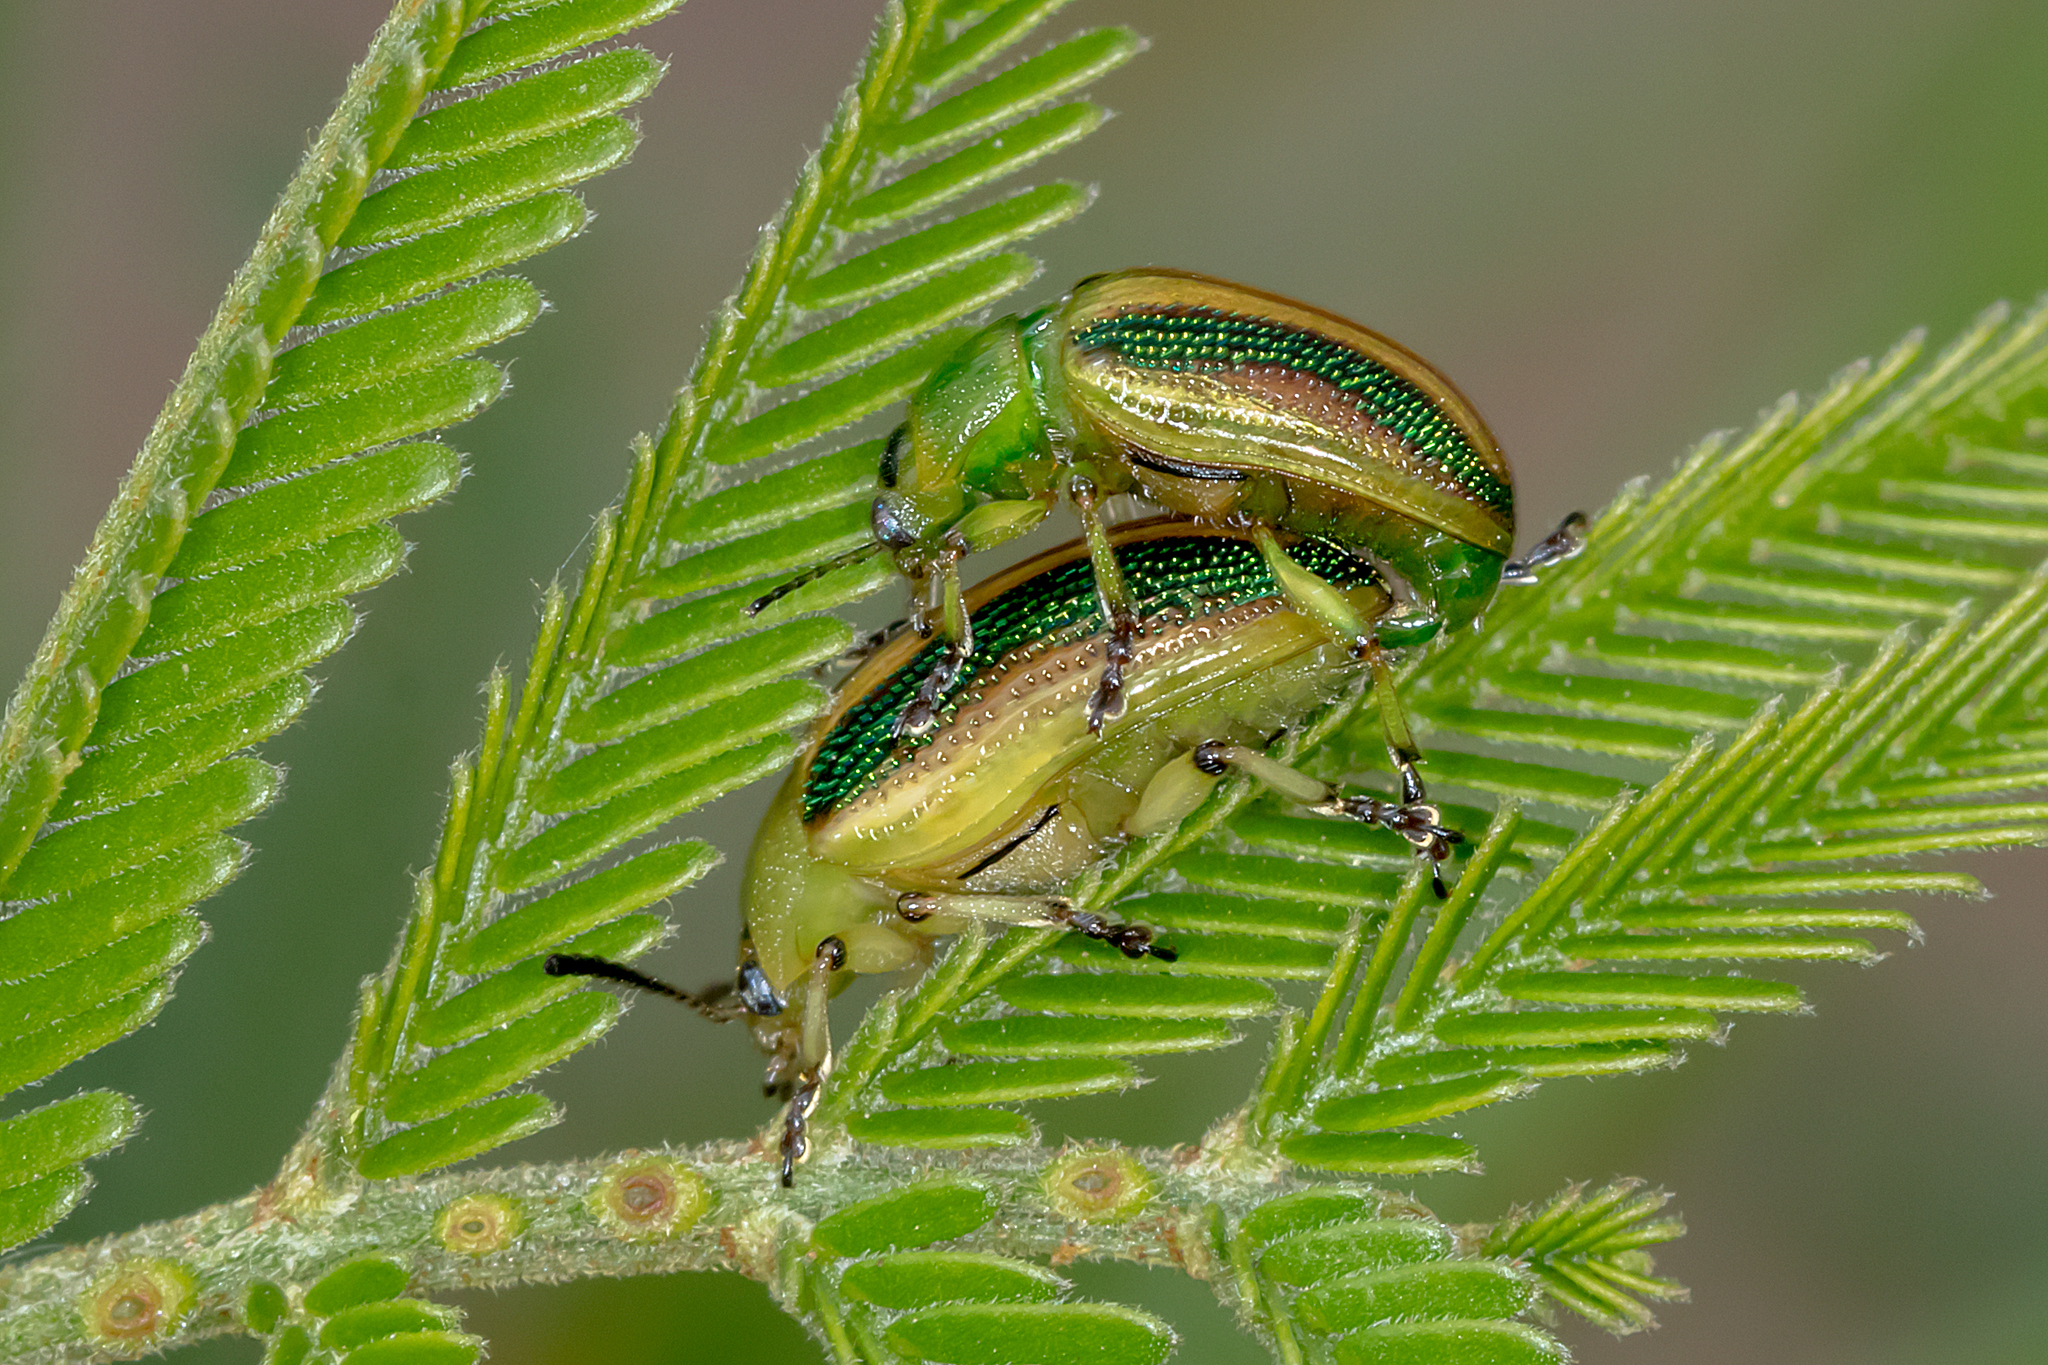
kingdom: Animalia
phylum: Arthropoda
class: Insecta
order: Coleoptera
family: Chrysomelidae
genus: Calomela
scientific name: Calomela
